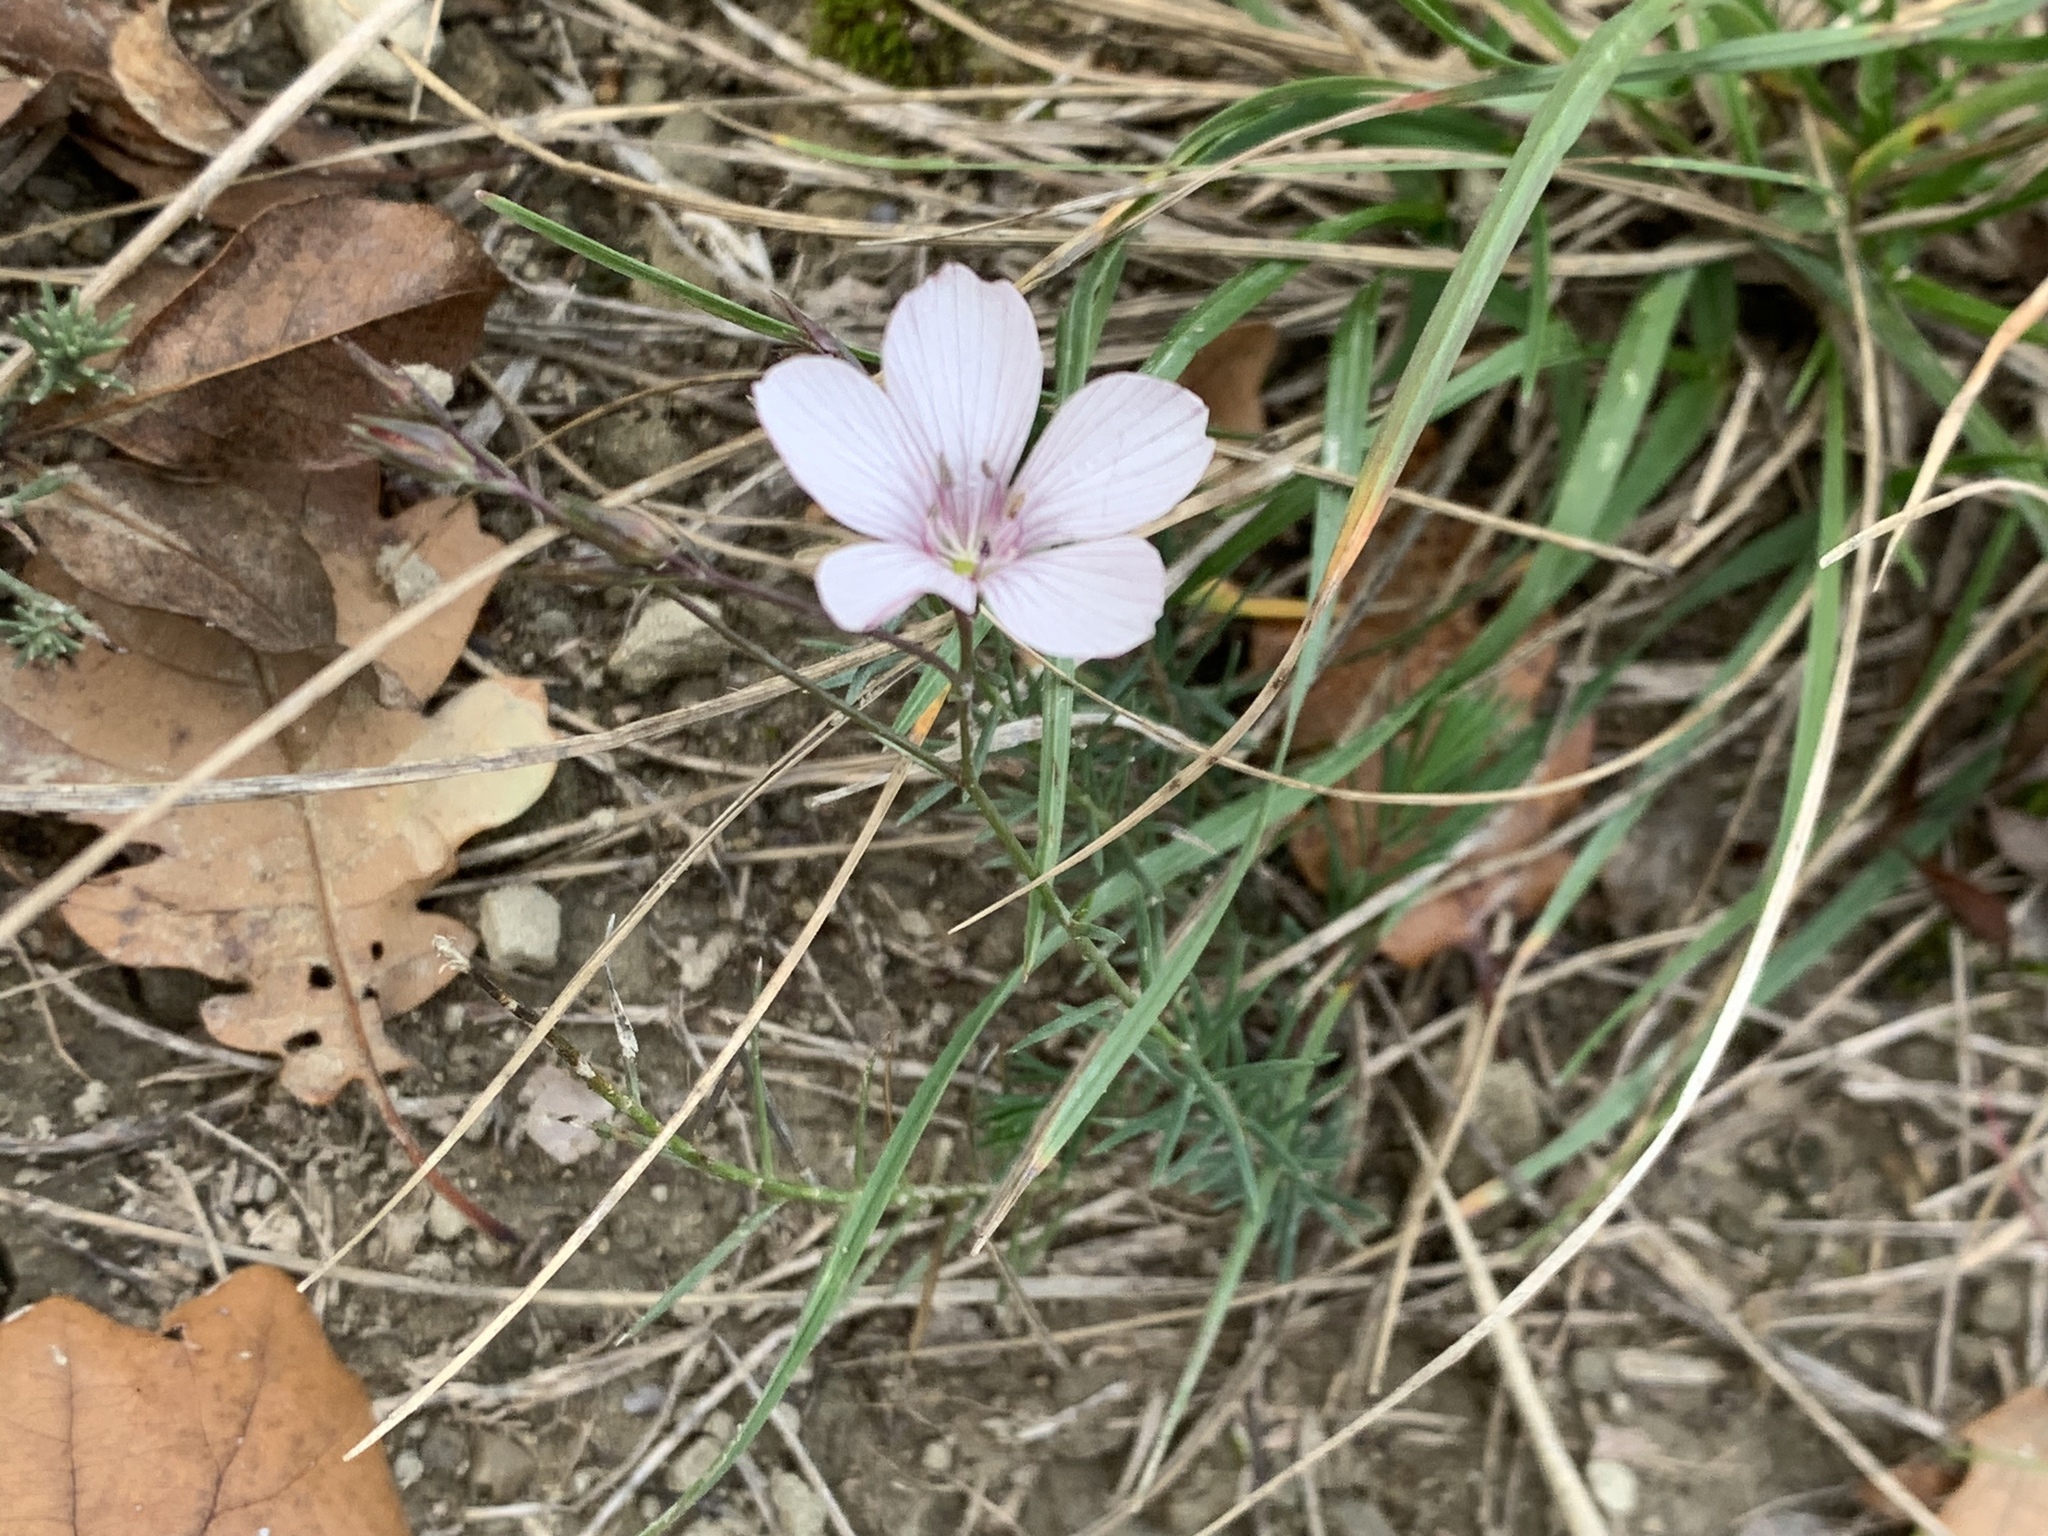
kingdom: Plantae
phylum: Tracheophyta
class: Magnoliopsida
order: Malpighiales
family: Linaceae
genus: Linum
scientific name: Linum tenuifolium
